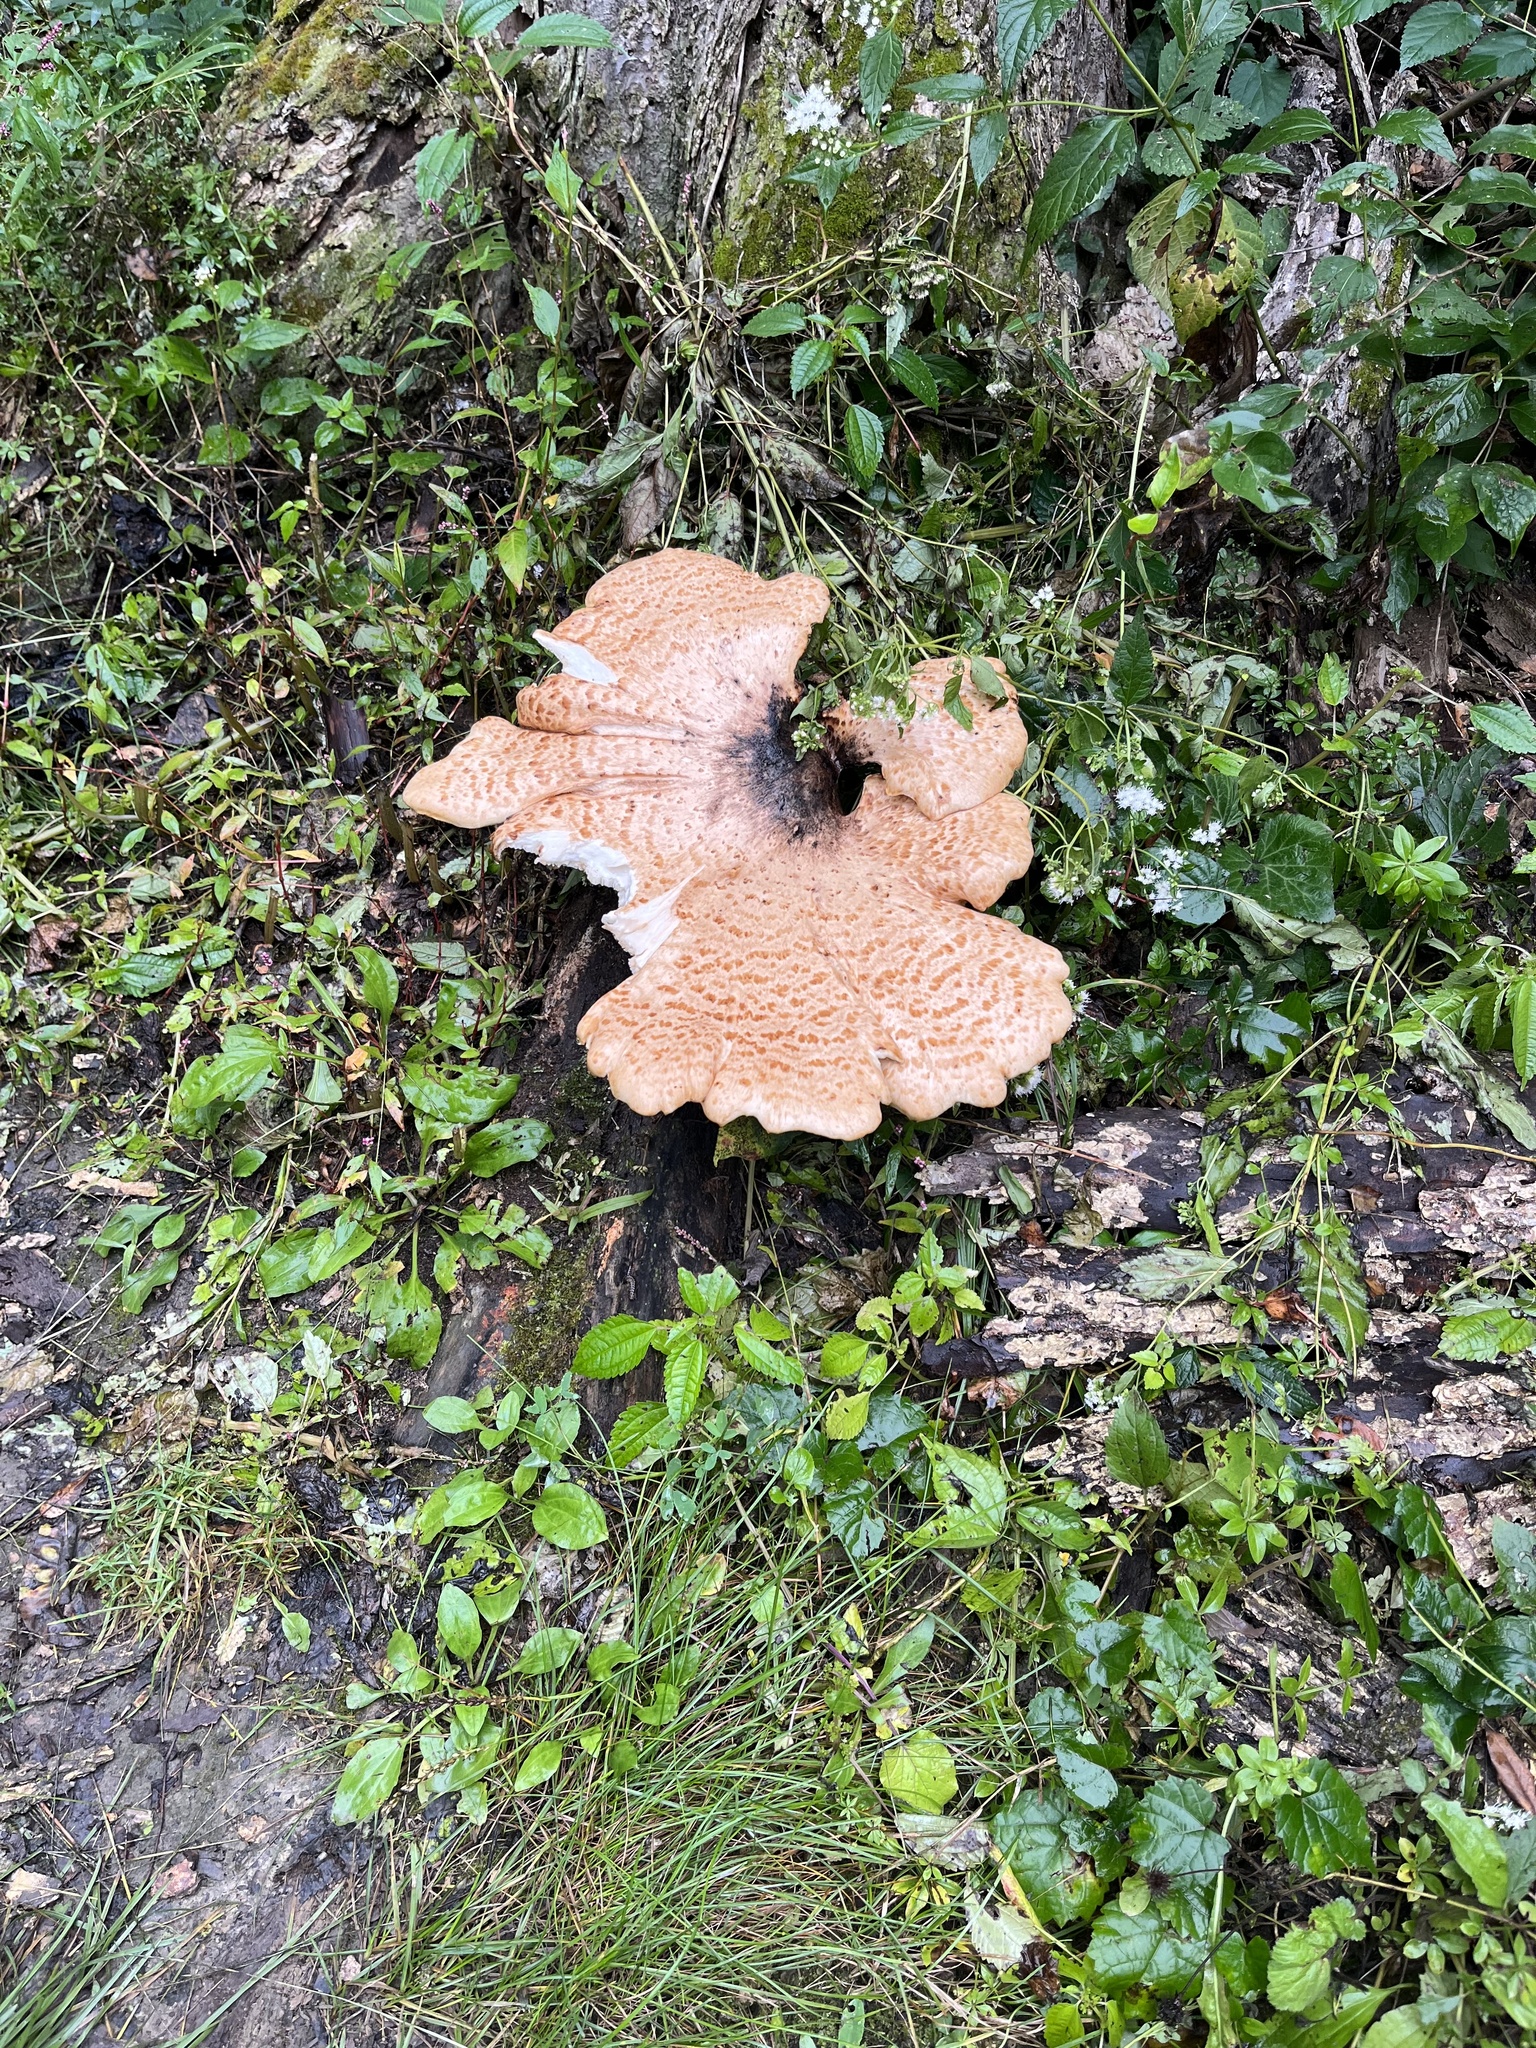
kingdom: Fungi
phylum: Basidiomycota
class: Agaricomycetes
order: Polyporales
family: Polyporaceae
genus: Cerioporus
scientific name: Cerioporus squamosus
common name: Dryad's saddle
